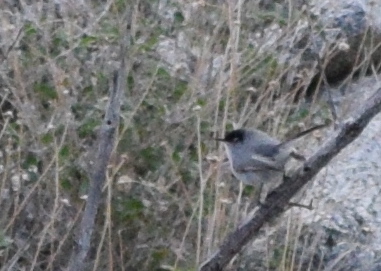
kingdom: Animalia
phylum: Chordata
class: Aves
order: Passeriformes
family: Polioptilidae
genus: Polioptila
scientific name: Polioptila melanura
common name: Black-tailed gnatcatcher
